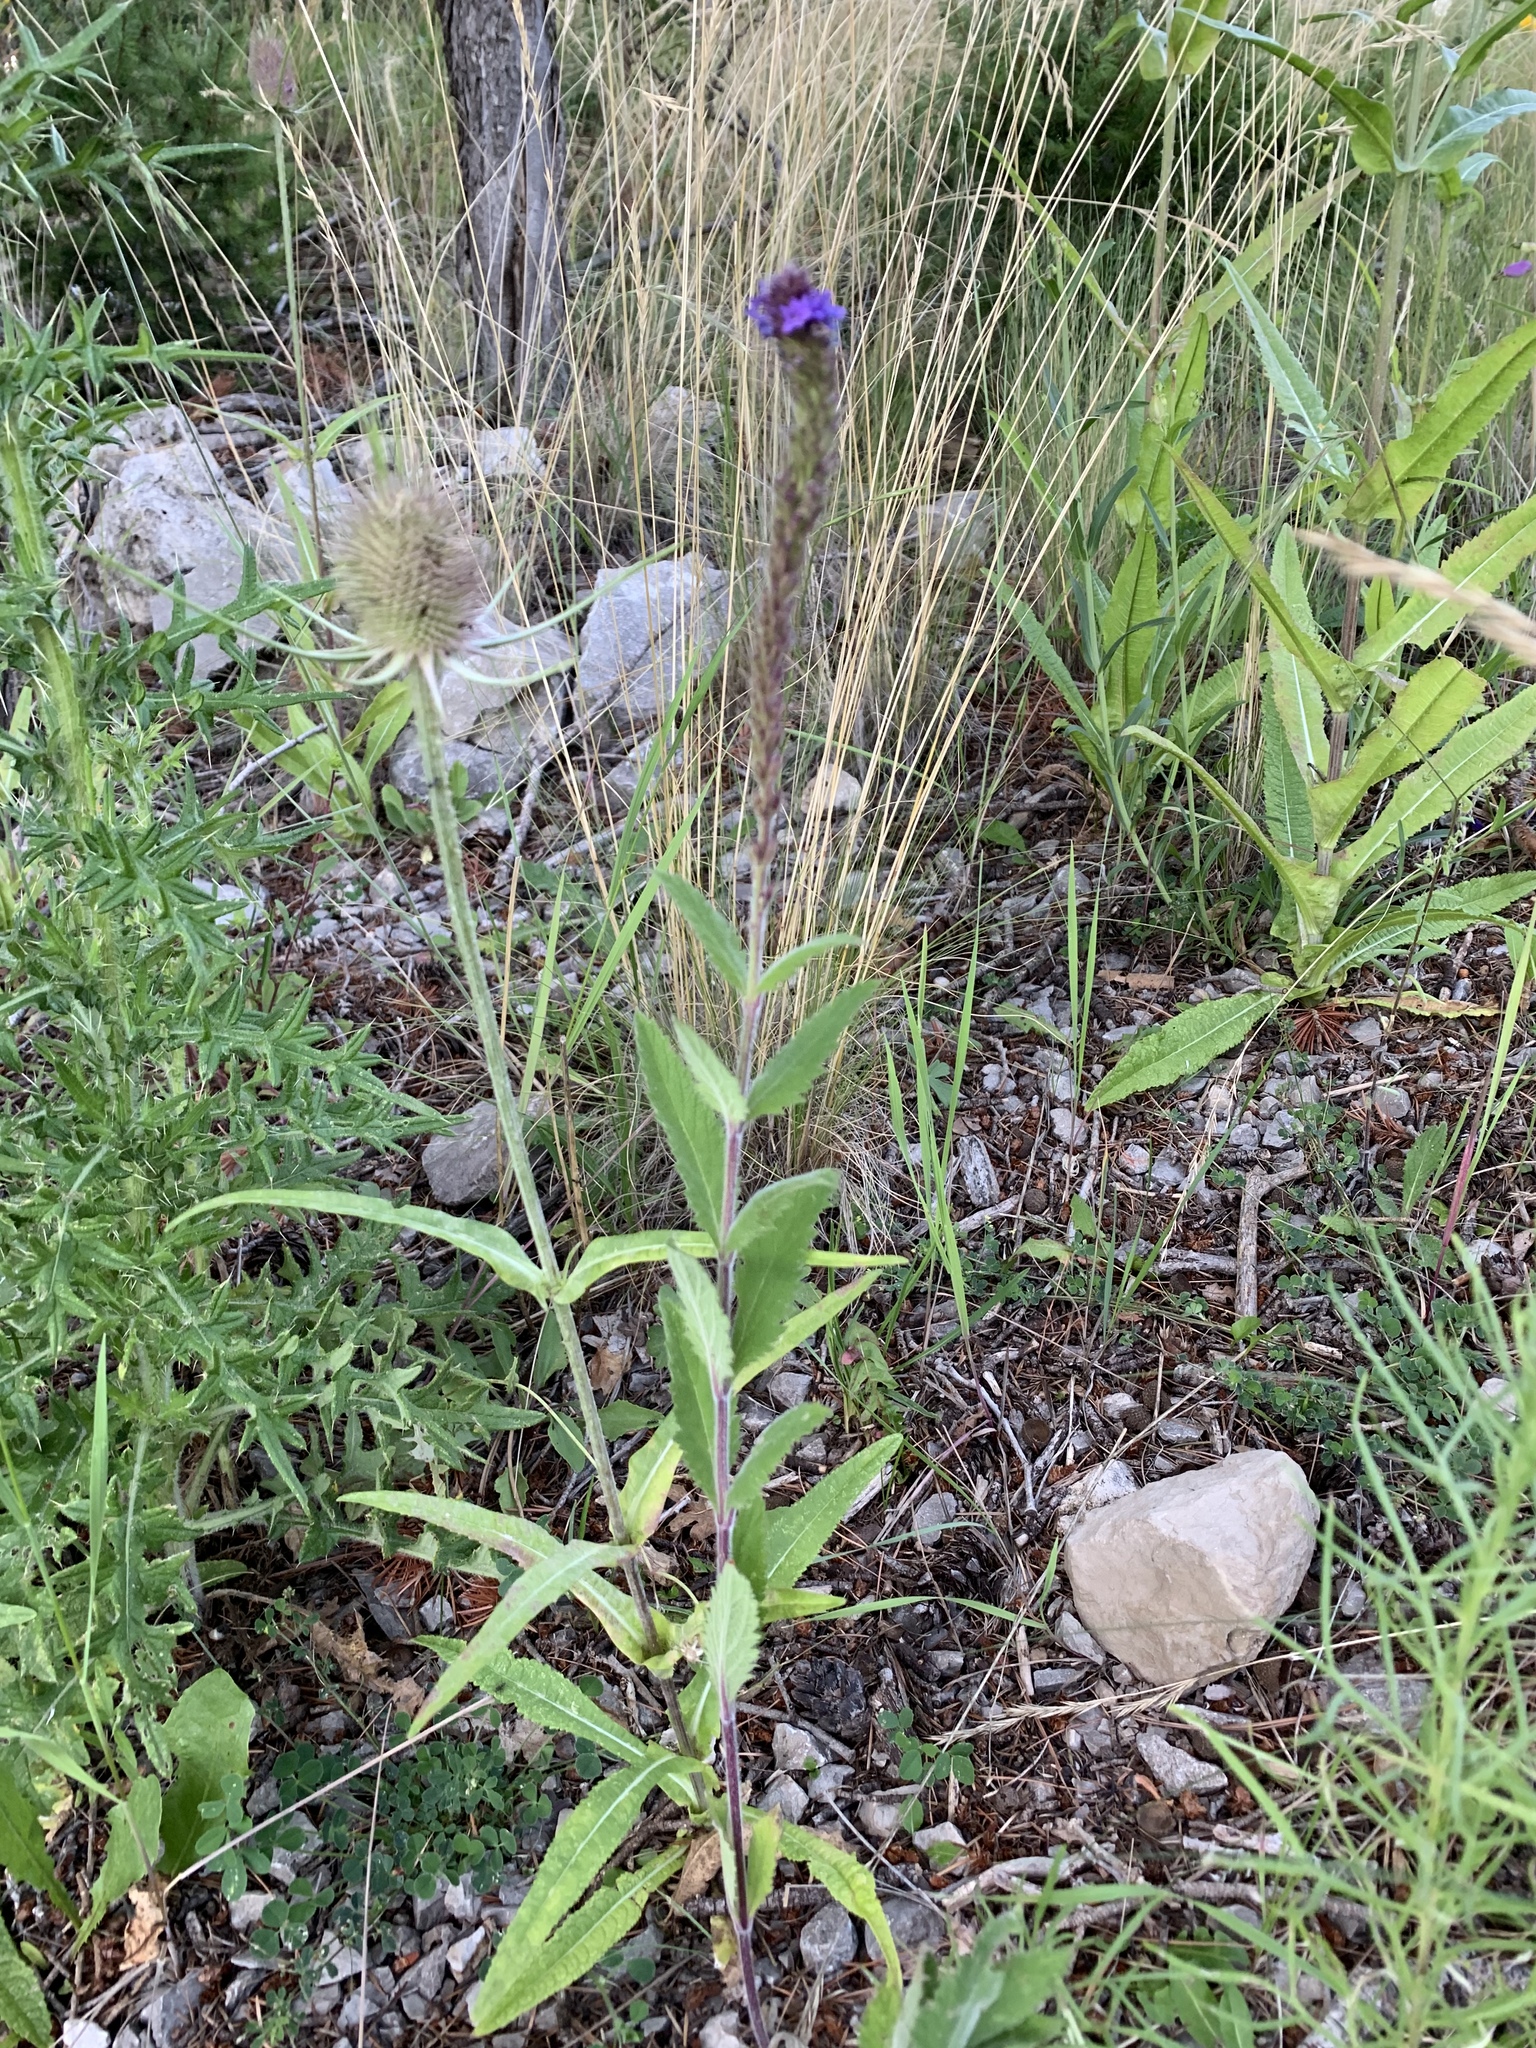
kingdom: Plantae
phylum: Tracheophyta
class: Magnoliopsida
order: Lamiales
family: Verbenaceae
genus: Verbena
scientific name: Verbena macdougalii
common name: New mexico vervain
